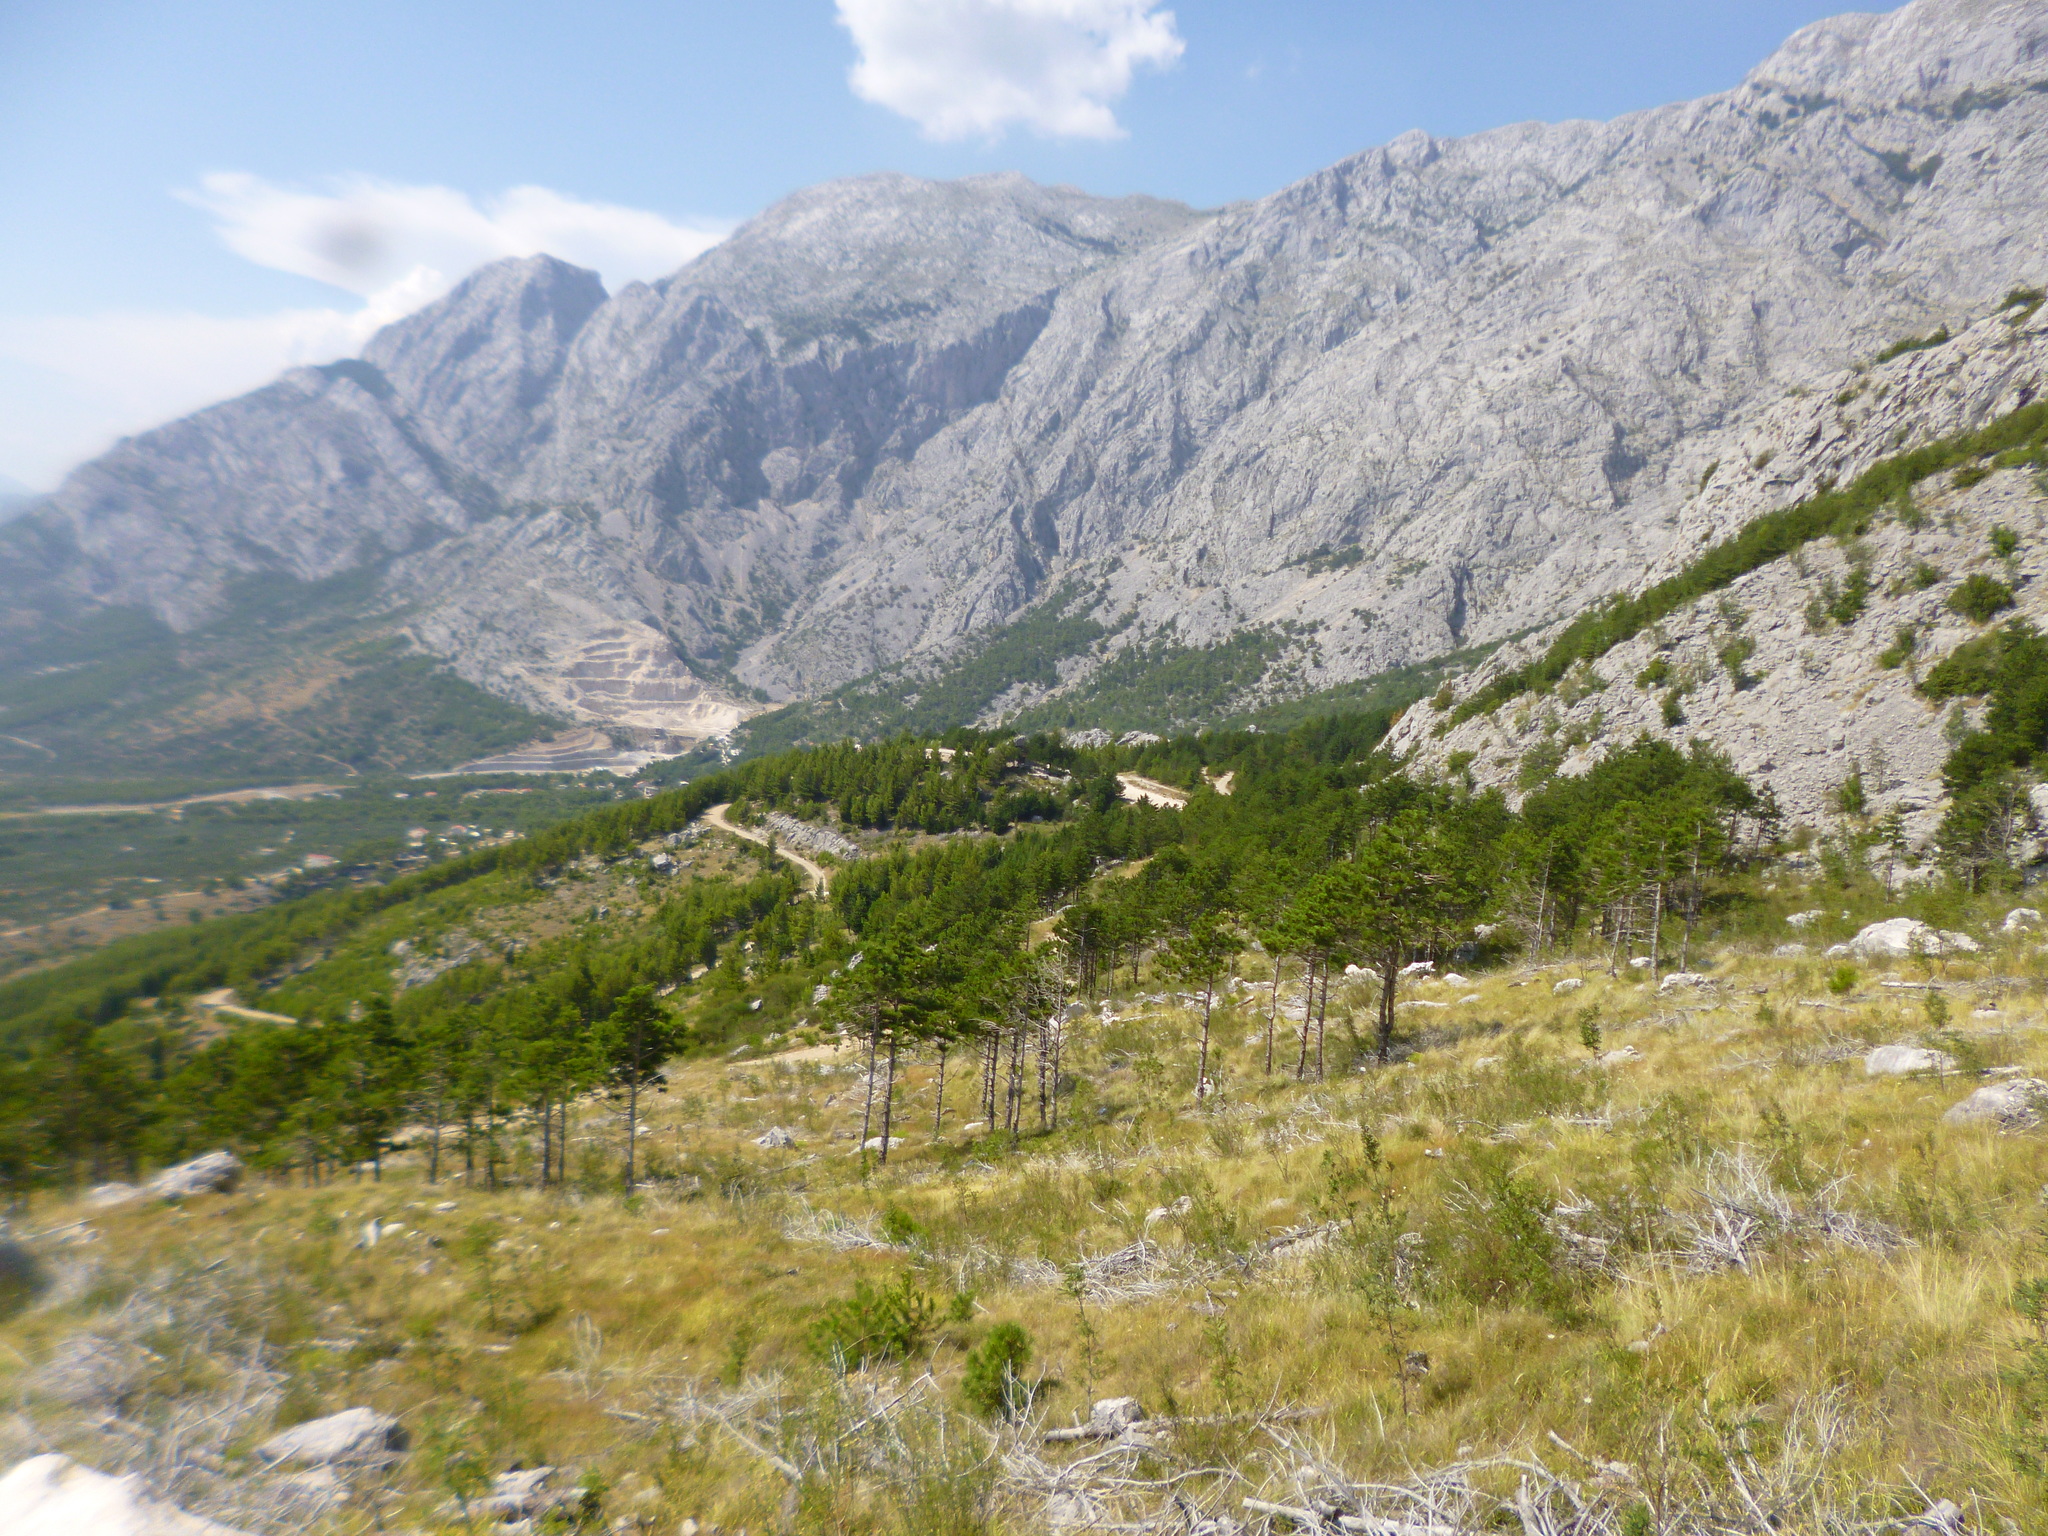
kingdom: Plantae
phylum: Tracheophyta
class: Pinopsida
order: Pinales
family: Pinaceae
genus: Pinus
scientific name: Pinus nigra
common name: Austrian pine
